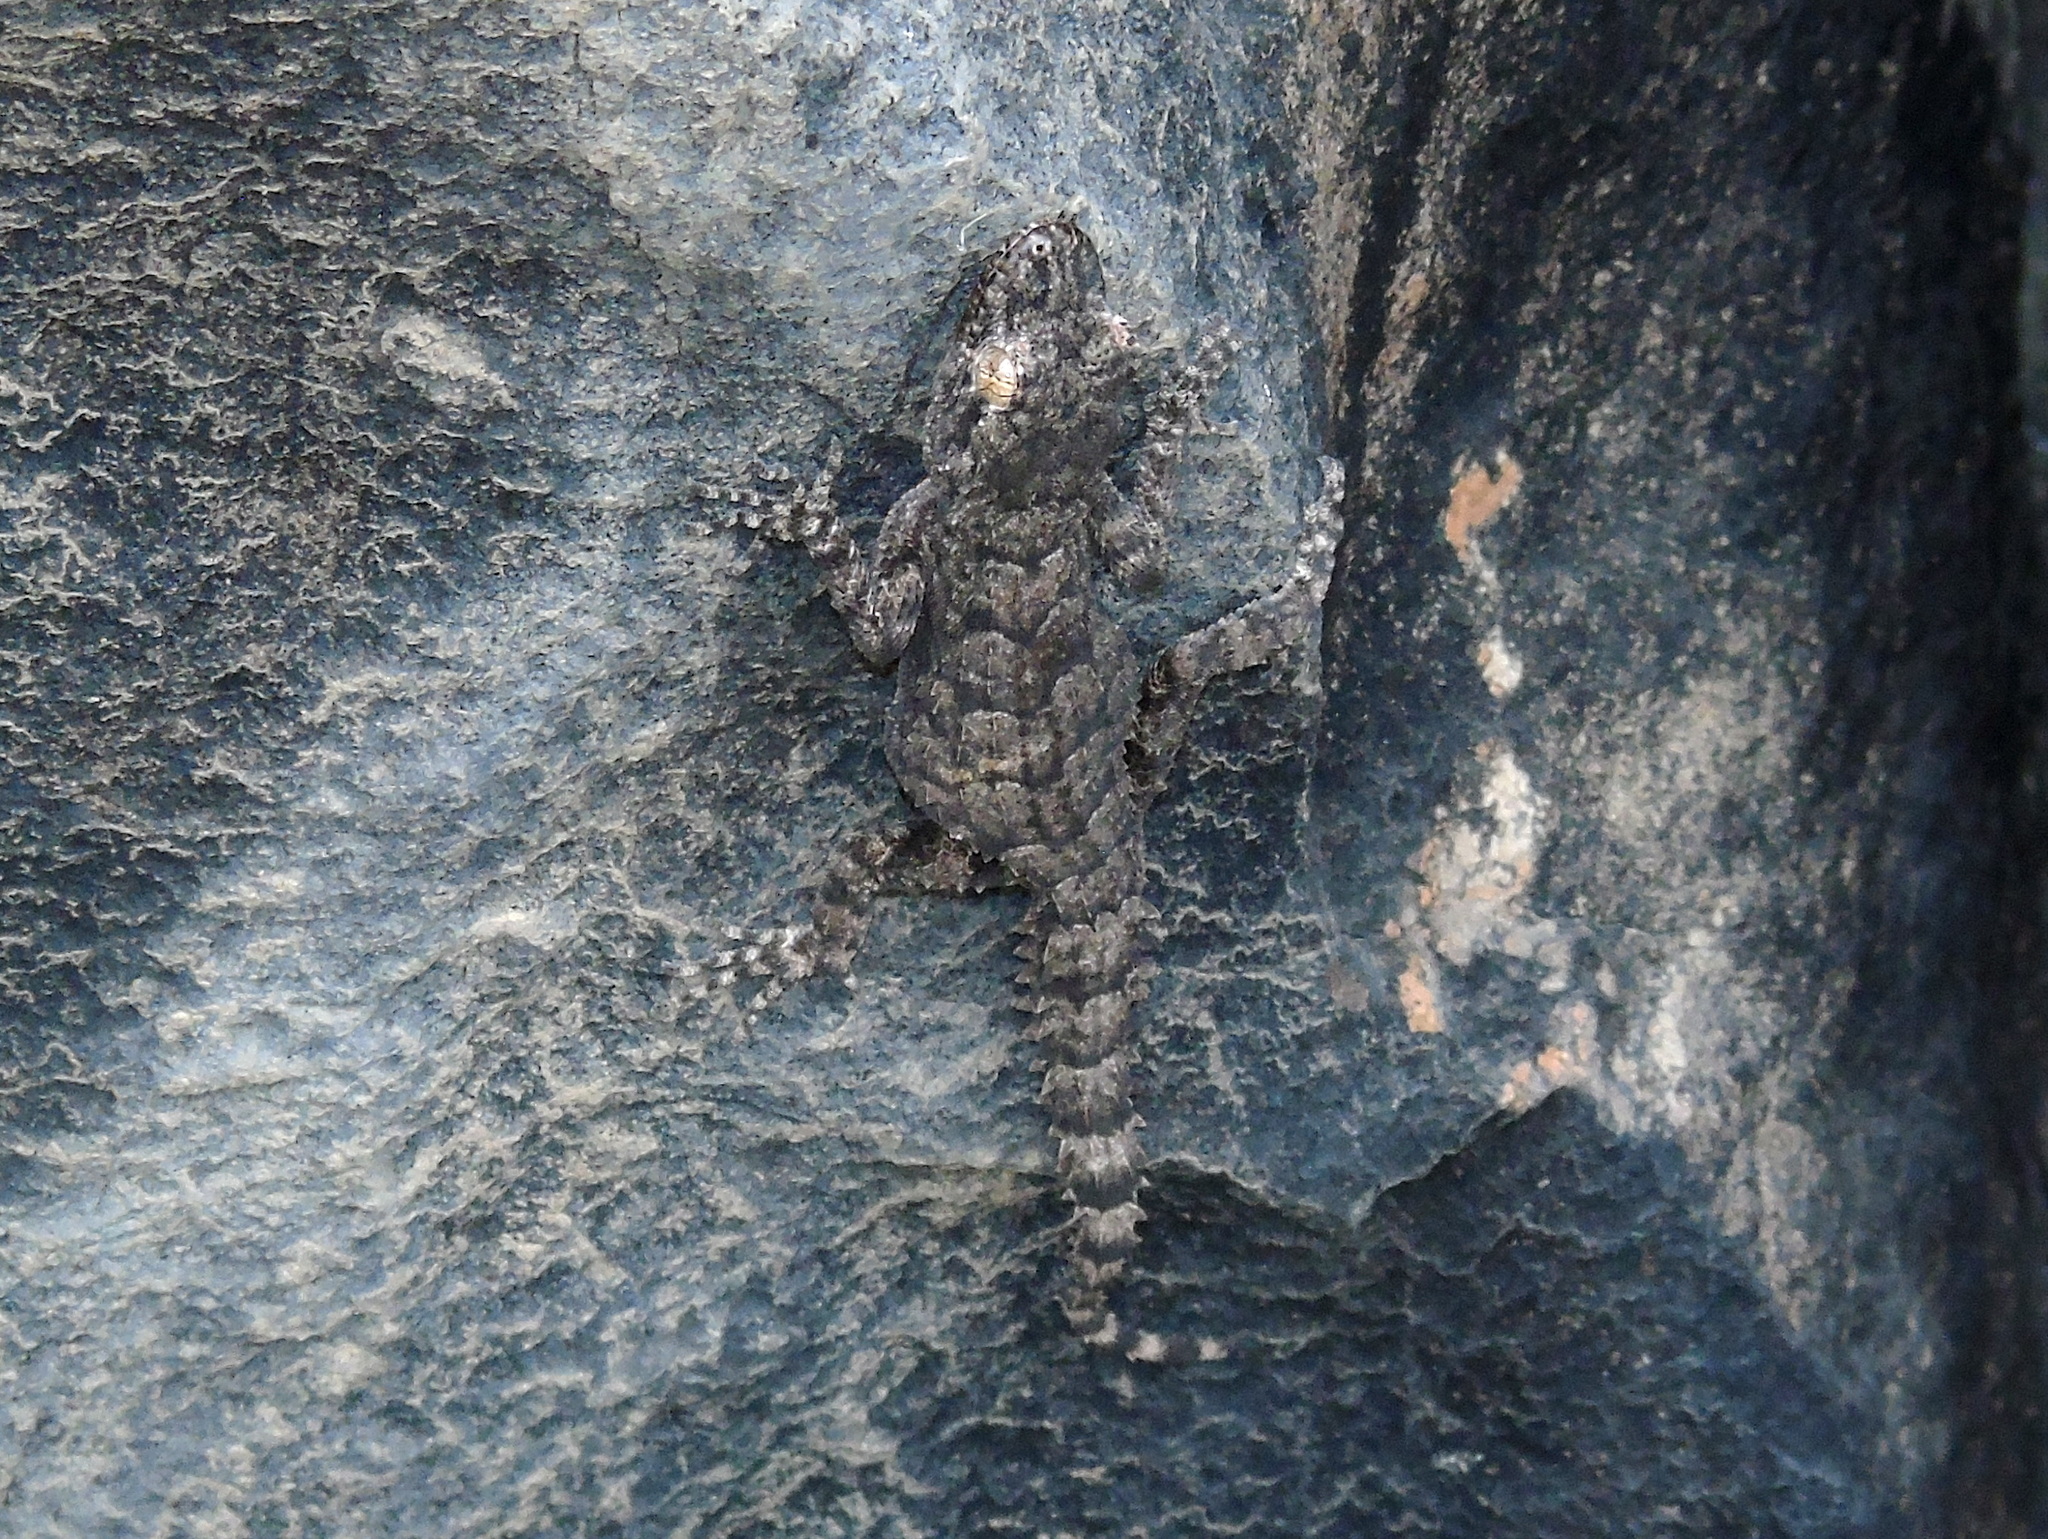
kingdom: Animalia
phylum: Chordata
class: Squamata
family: Gekkonidae
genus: Mediodactylus
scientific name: Mediodactylus heterocercus
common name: Asia minor thin-toed gecko
